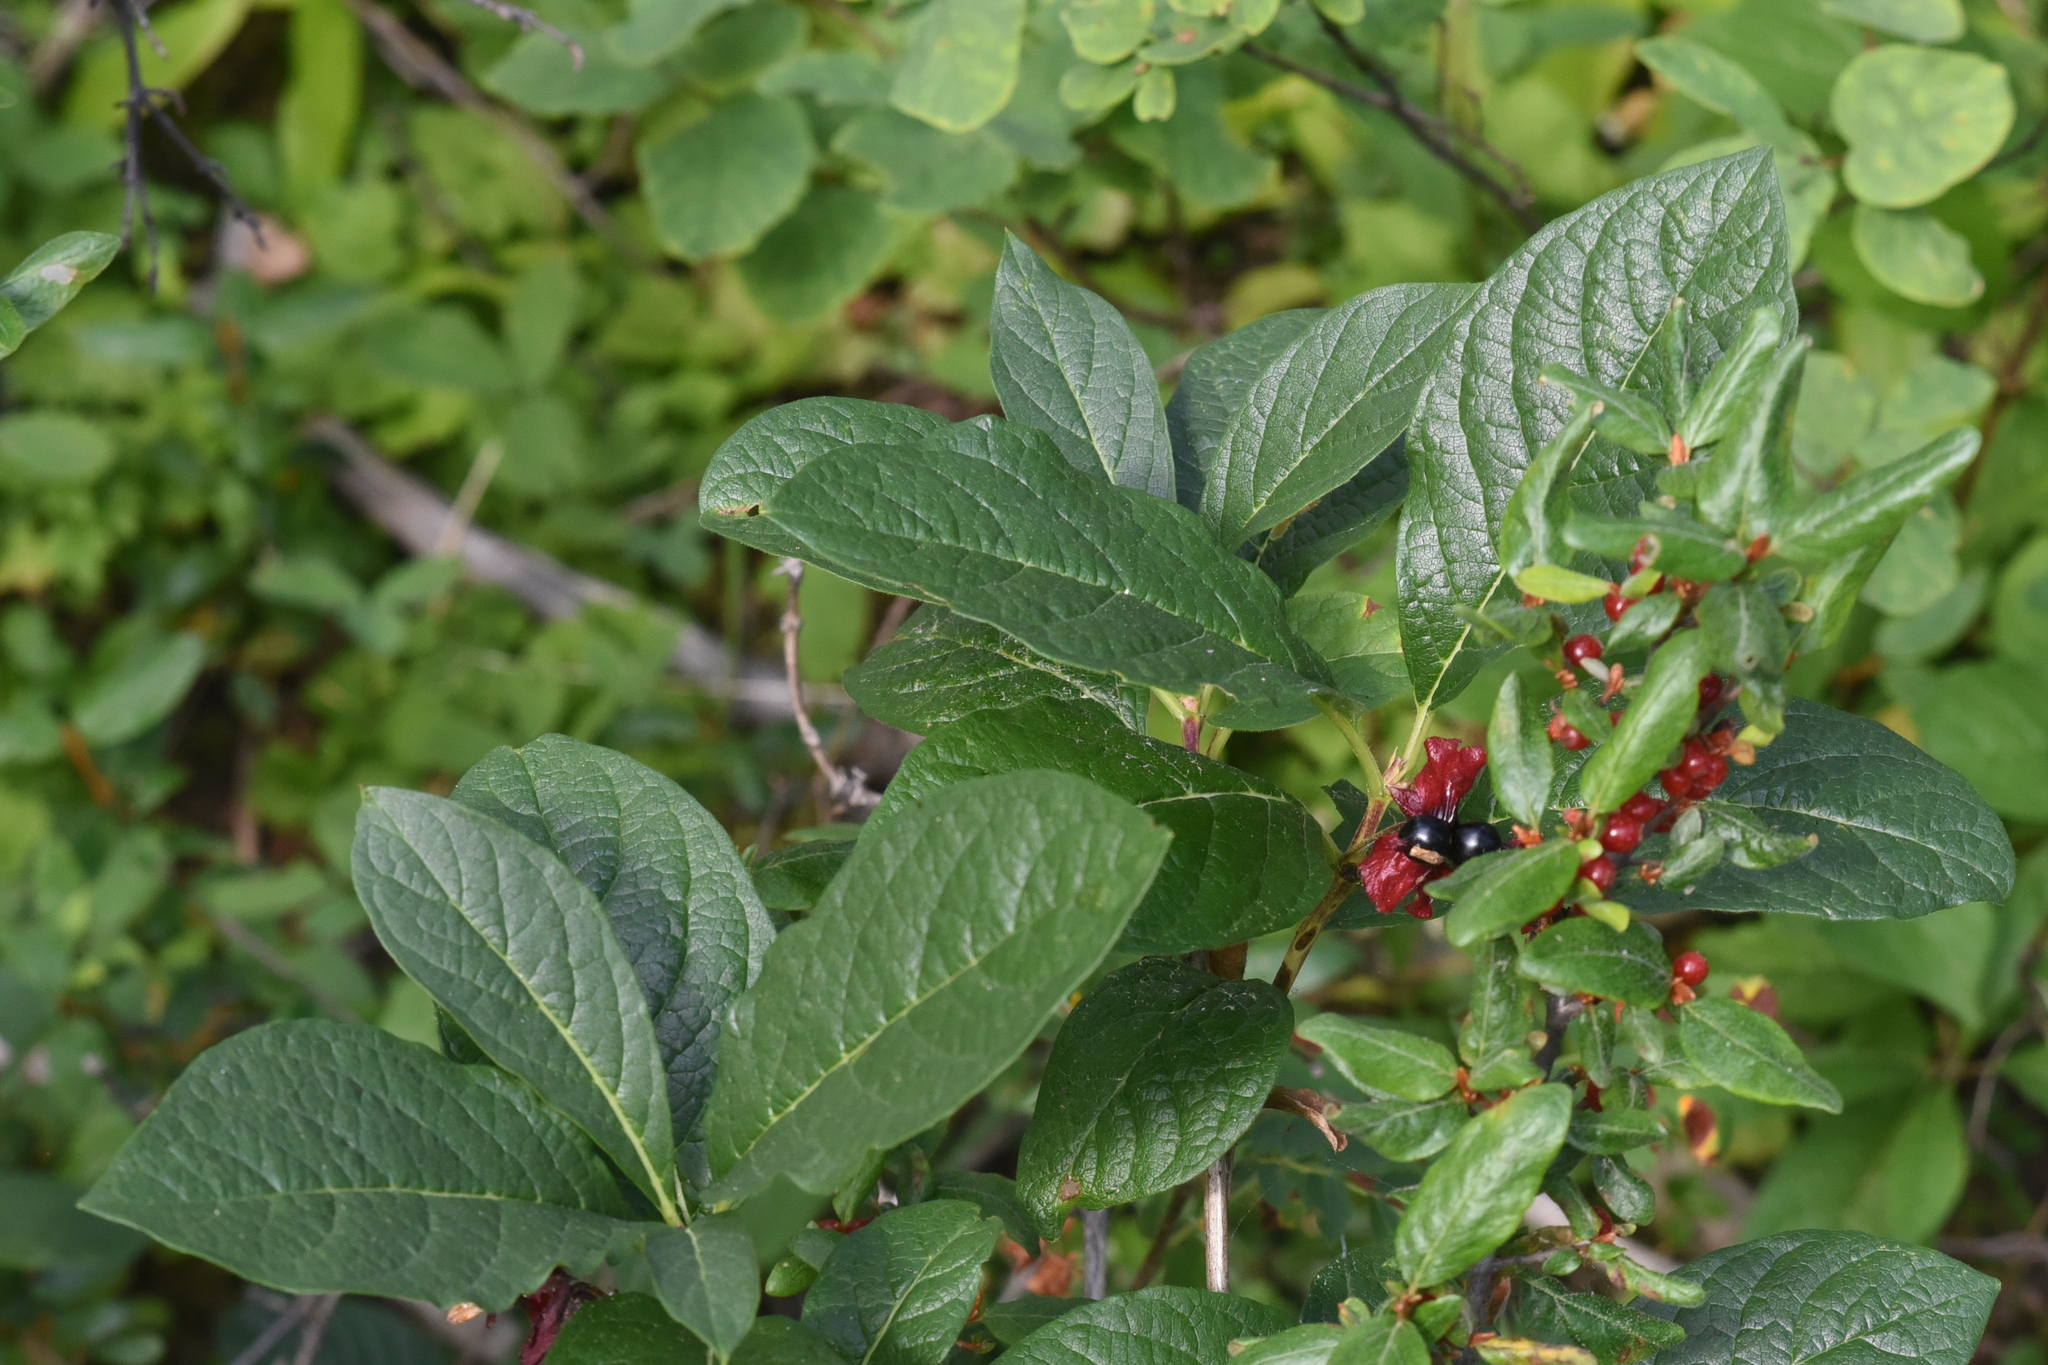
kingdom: Plantae
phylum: Tracheophyta
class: Magnoliopsida
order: Dipsacales
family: Caprifoliaceae
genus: Lonicera
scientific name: Lonicera involucrata
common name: Californian honeysuckle
